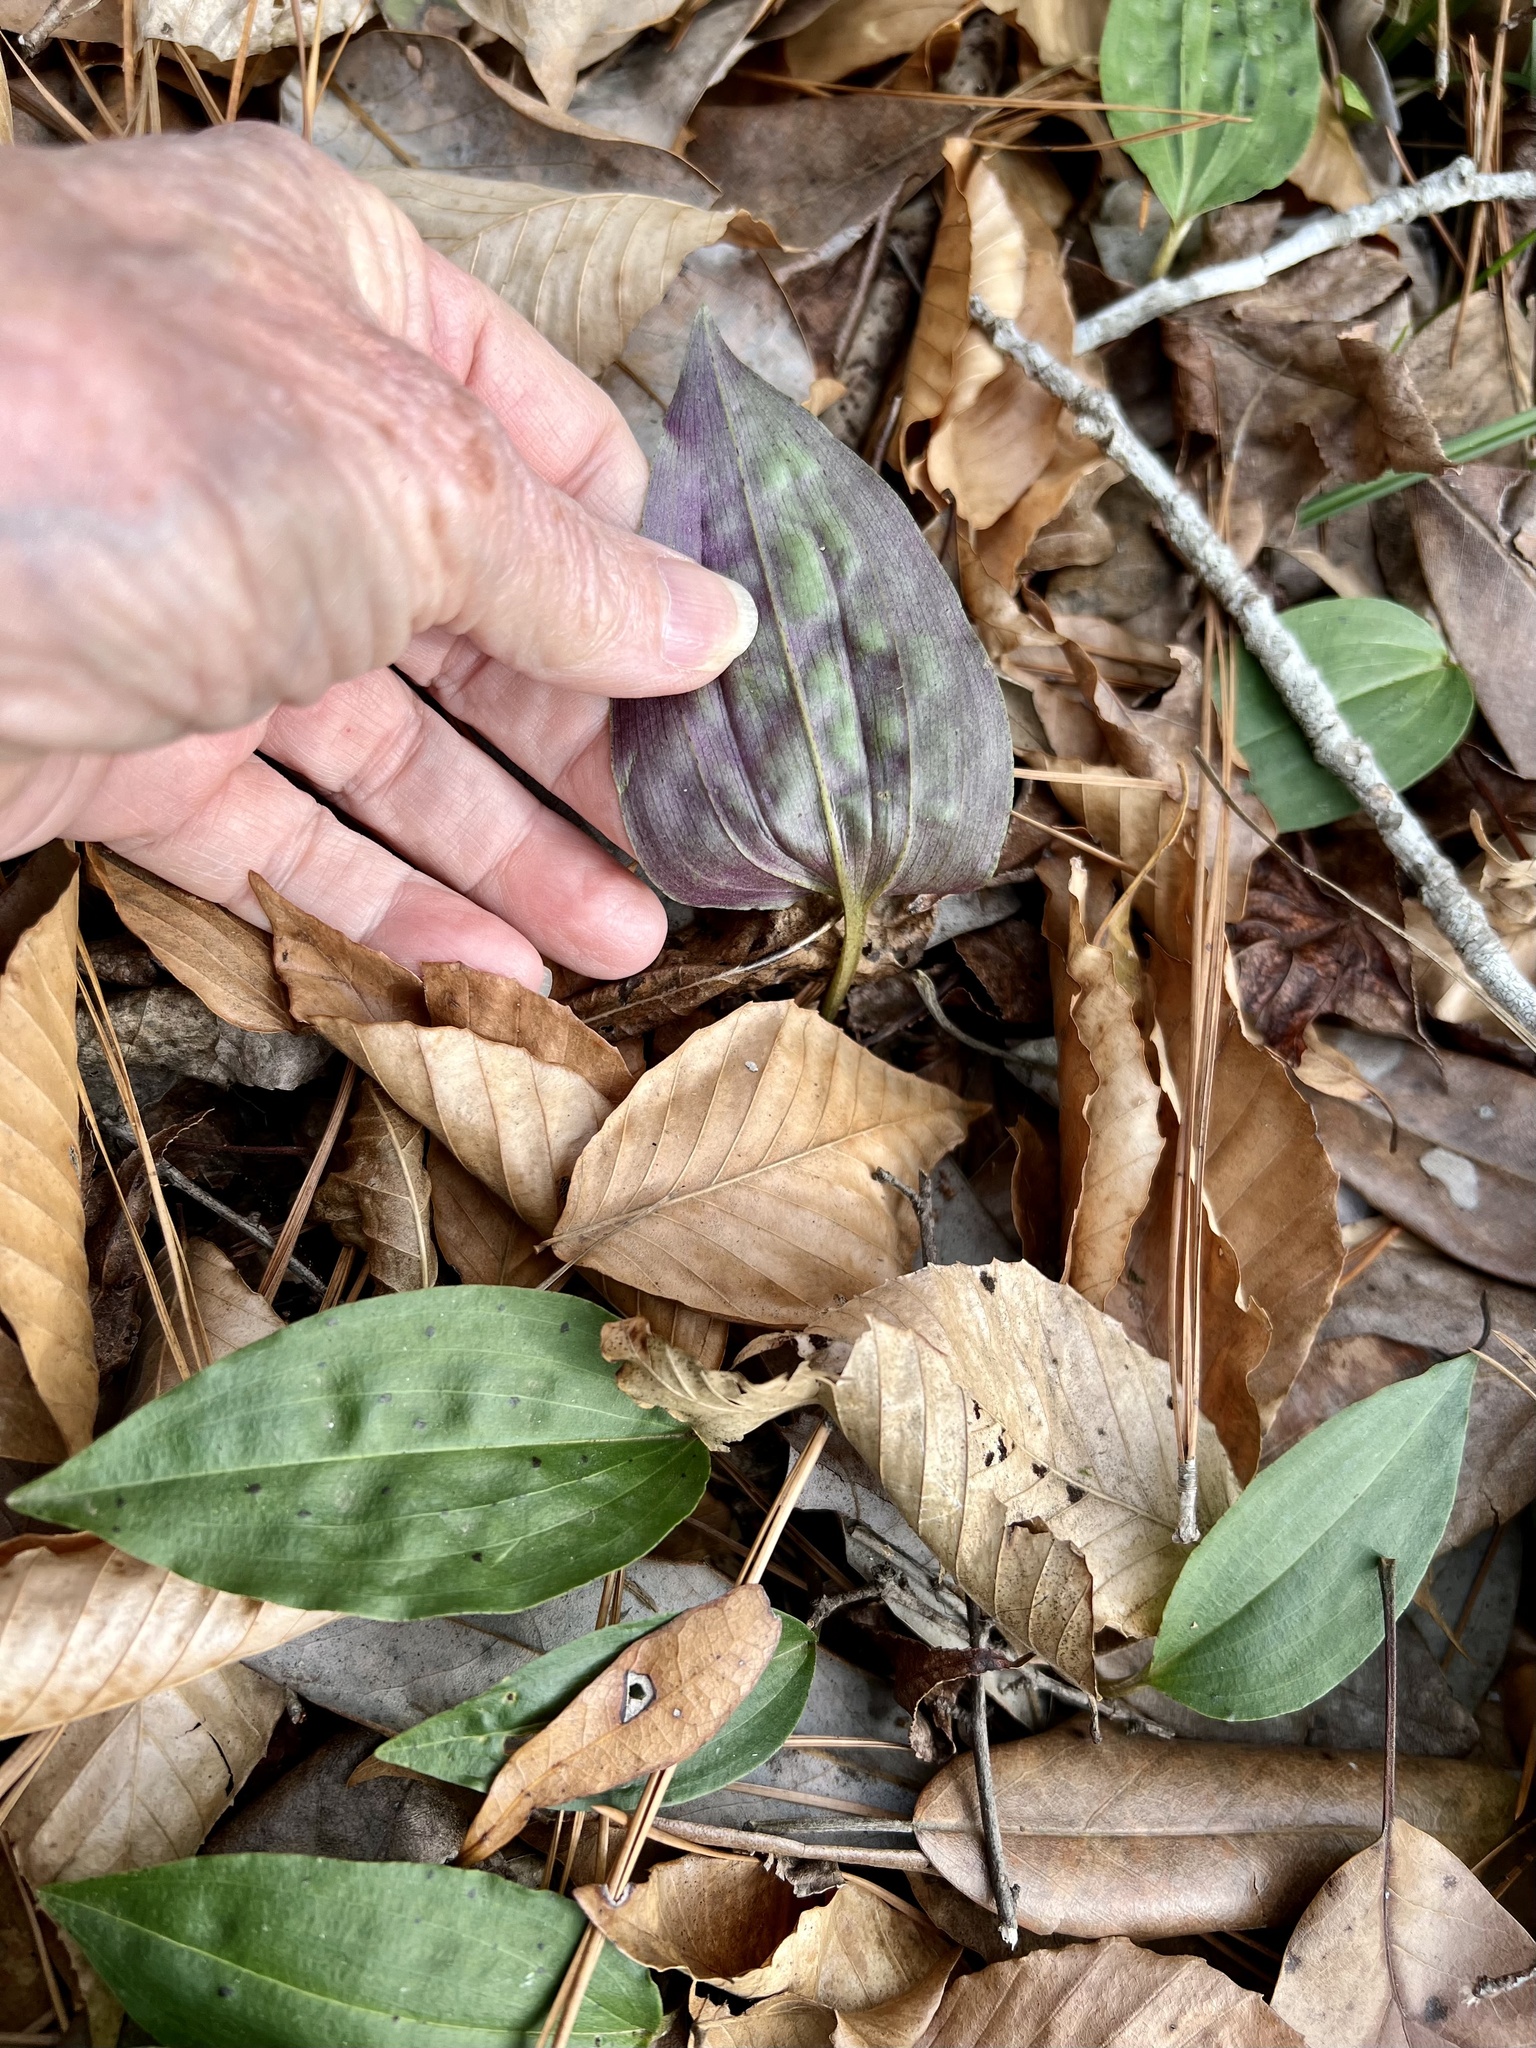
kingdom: Plantae
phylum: Tracheophyta
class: Liliopsida
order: Asparagales
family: Orchidaceae
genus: Tipularia
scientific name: Tipularia discolor
